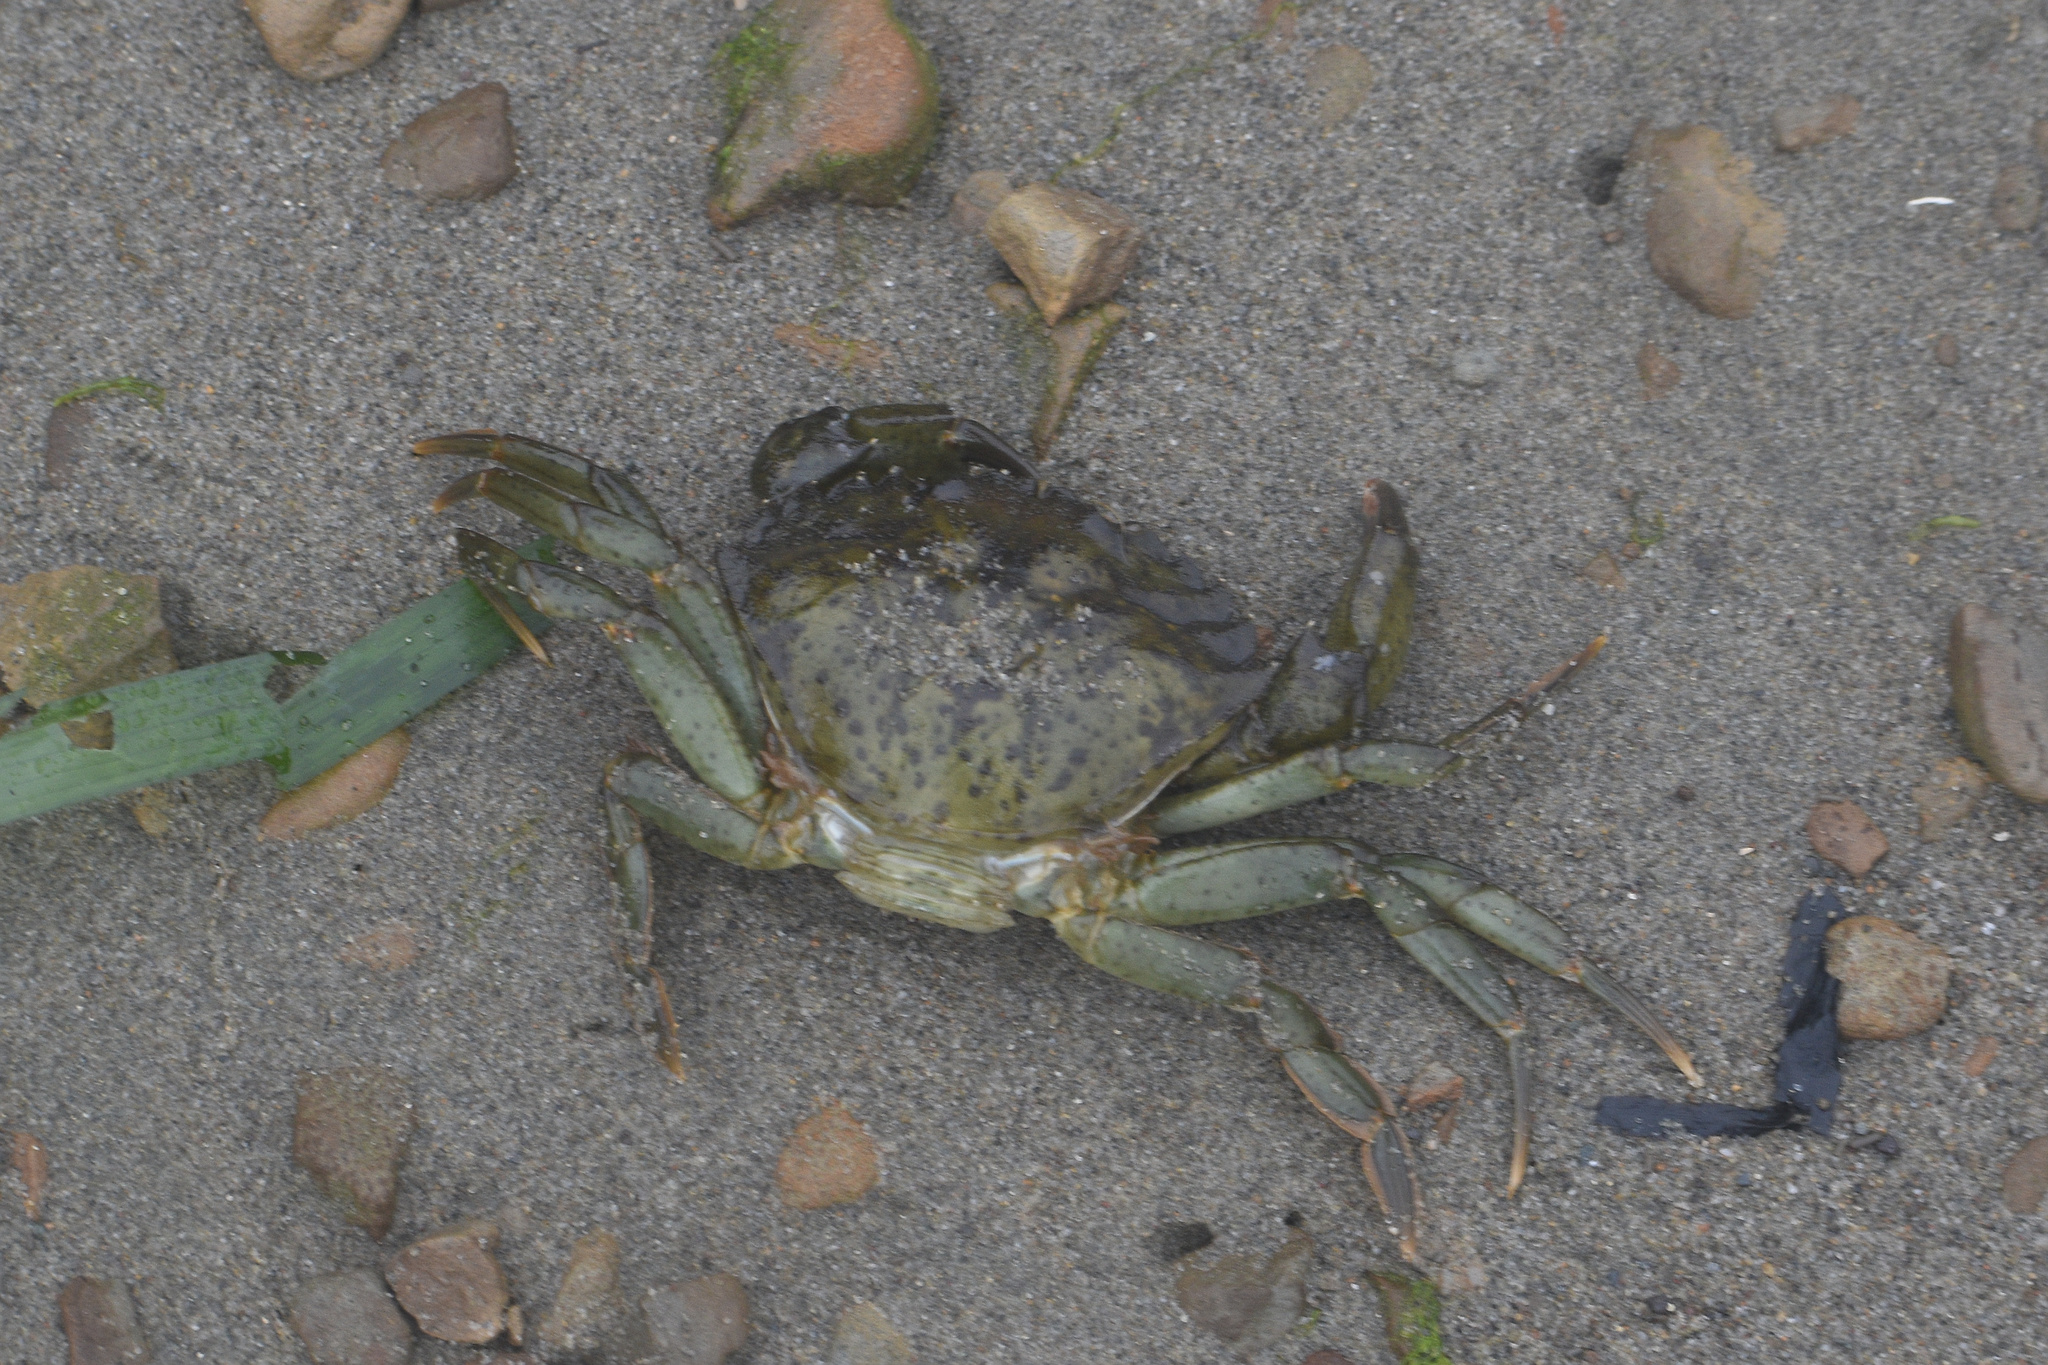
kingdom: Animalia
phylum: Arthropoda
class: Malacostraca
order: Decapoda
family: Carcinidae
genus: Carcinus
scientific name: Carcinus maenas
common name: European green crab
